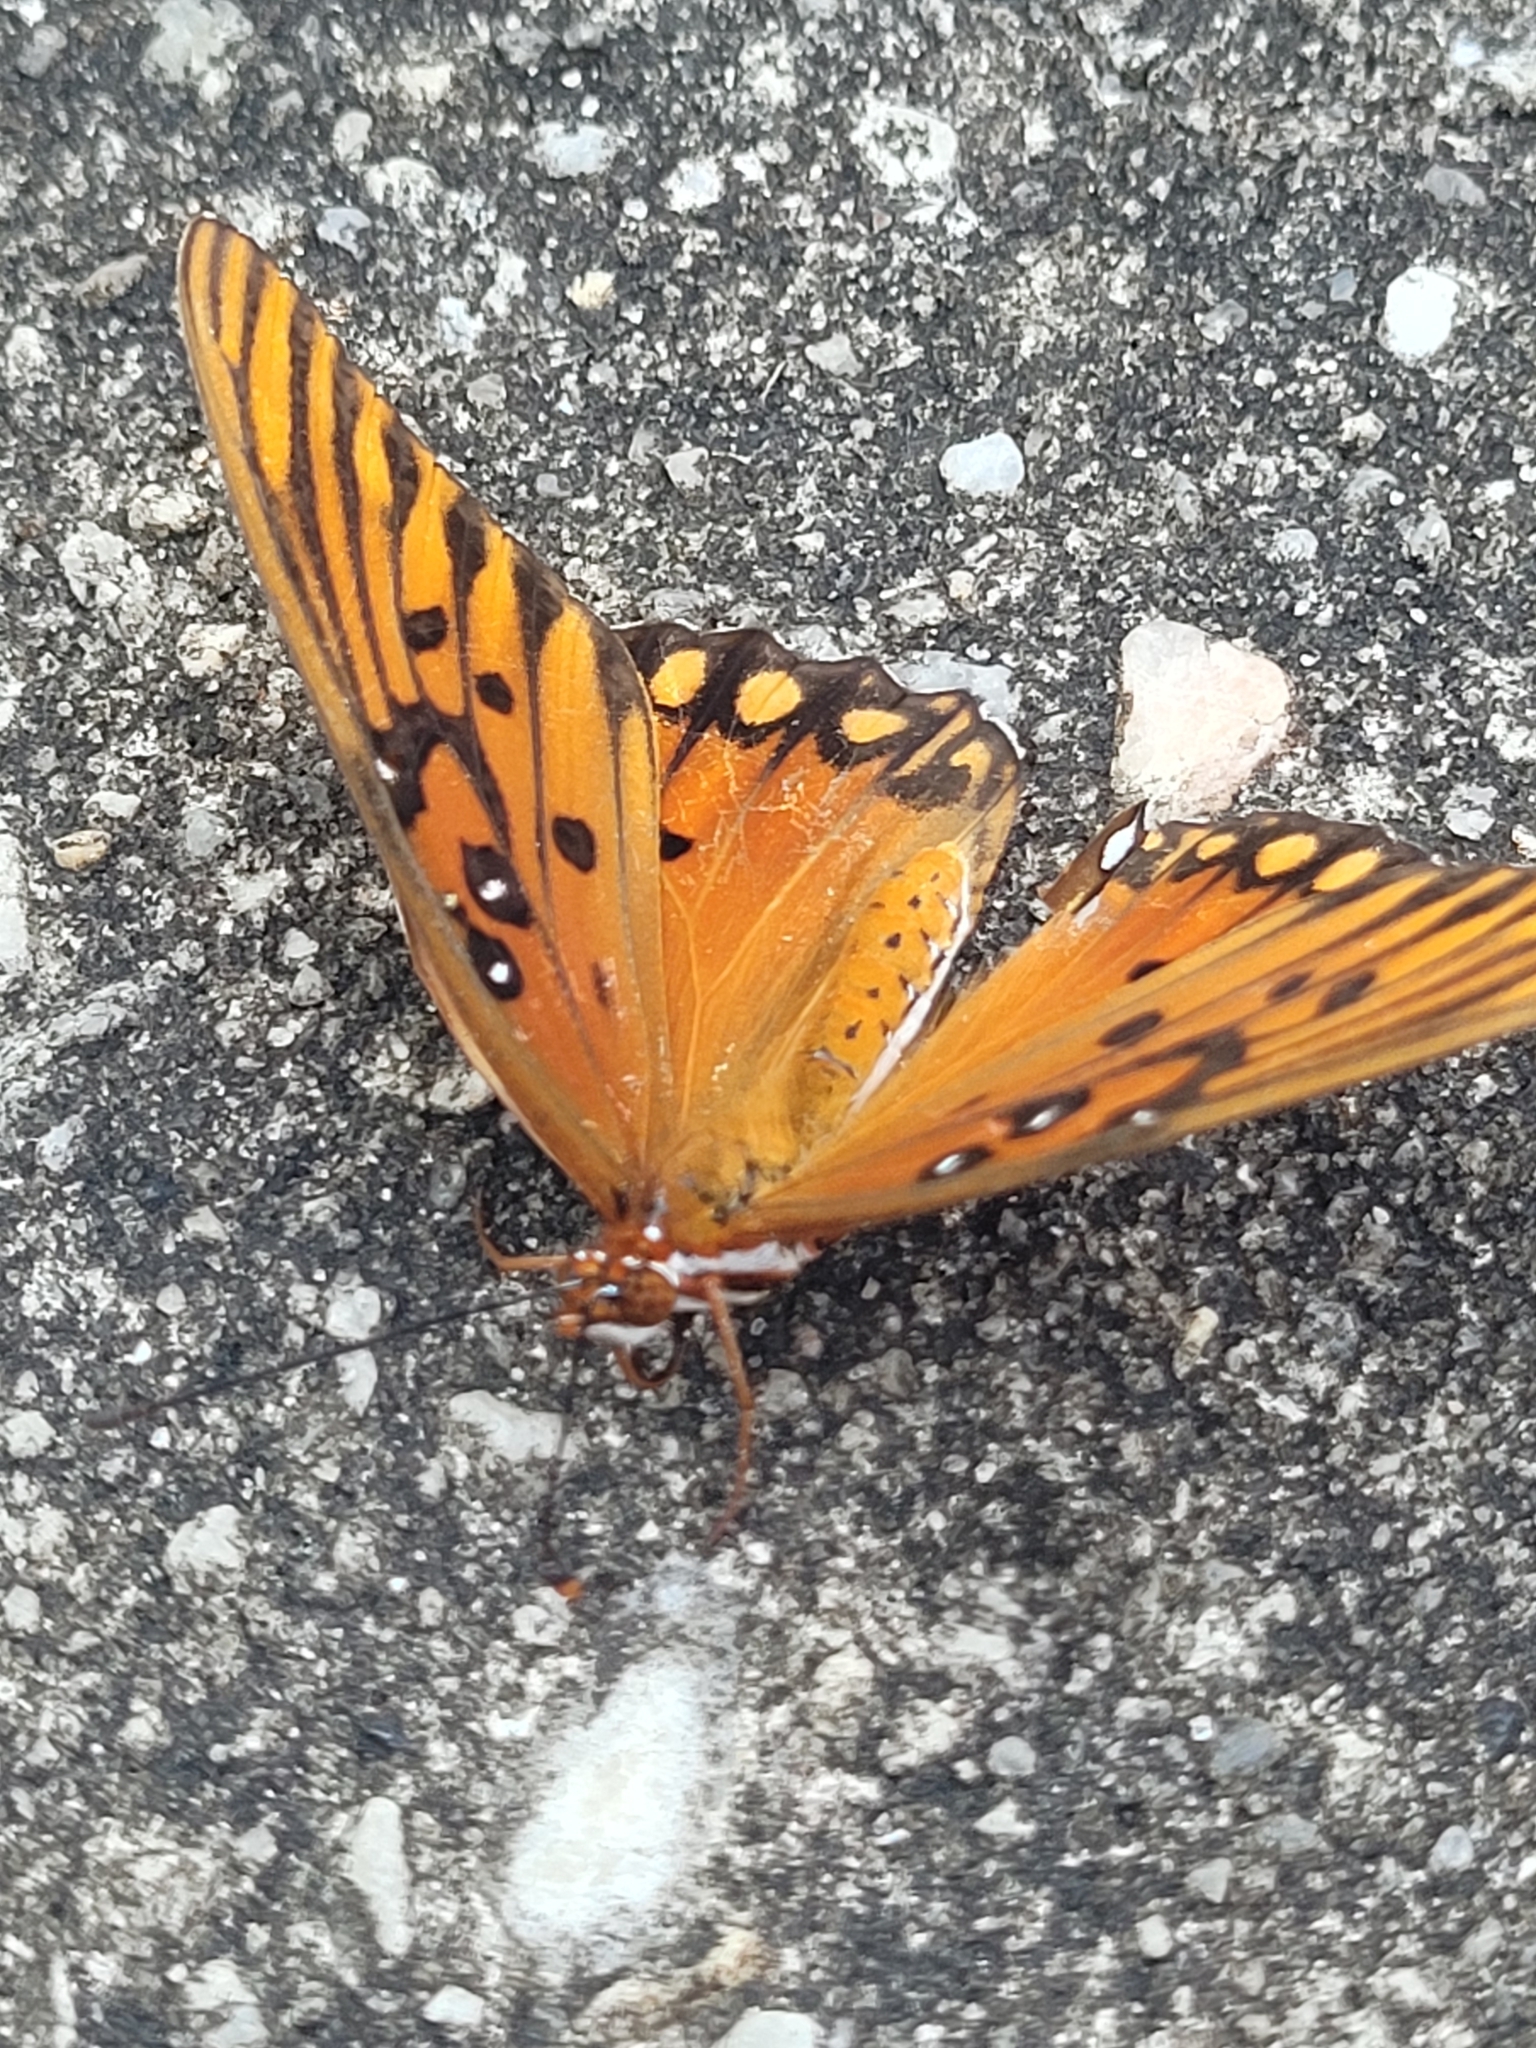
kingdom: Animalia
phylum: Arthropoda
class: Insecta
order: Lepidoptera
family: Nymphalidae
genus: Dione
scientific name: Dione vanillae
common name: Gulf fritillary
